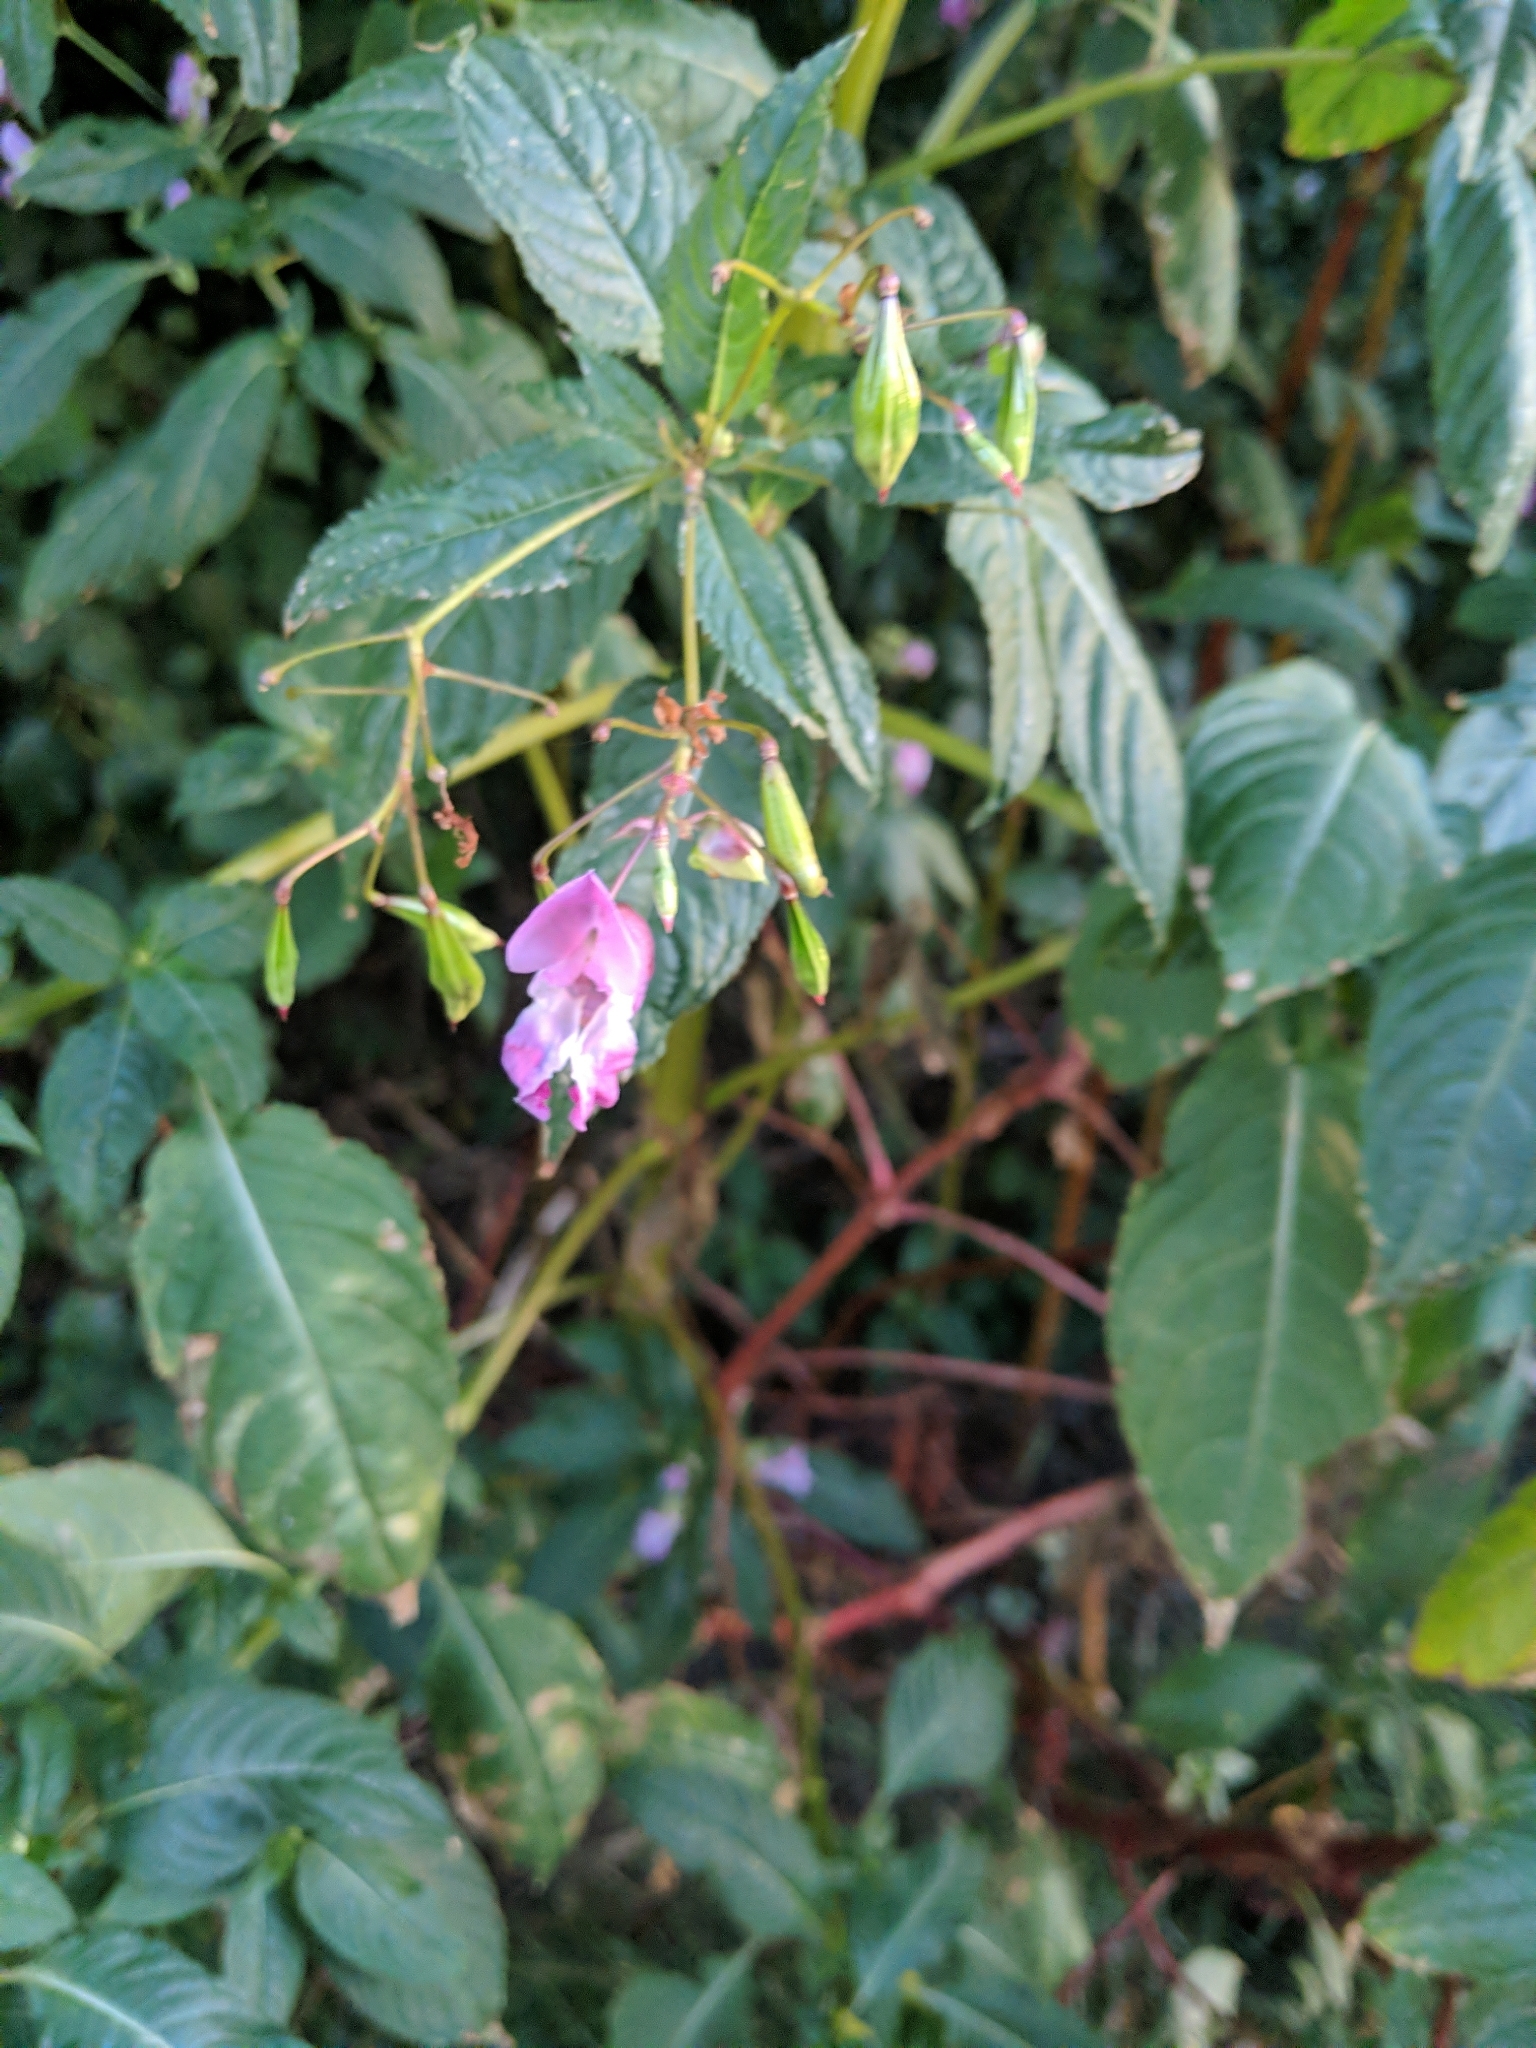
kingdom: Plantae
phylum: Tracheophyta
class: Magnoliopsida
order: Ericales
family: Balsaminaceae
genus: Impatiens
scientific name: Impatiens glandulifera
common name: Himalayan balsam
